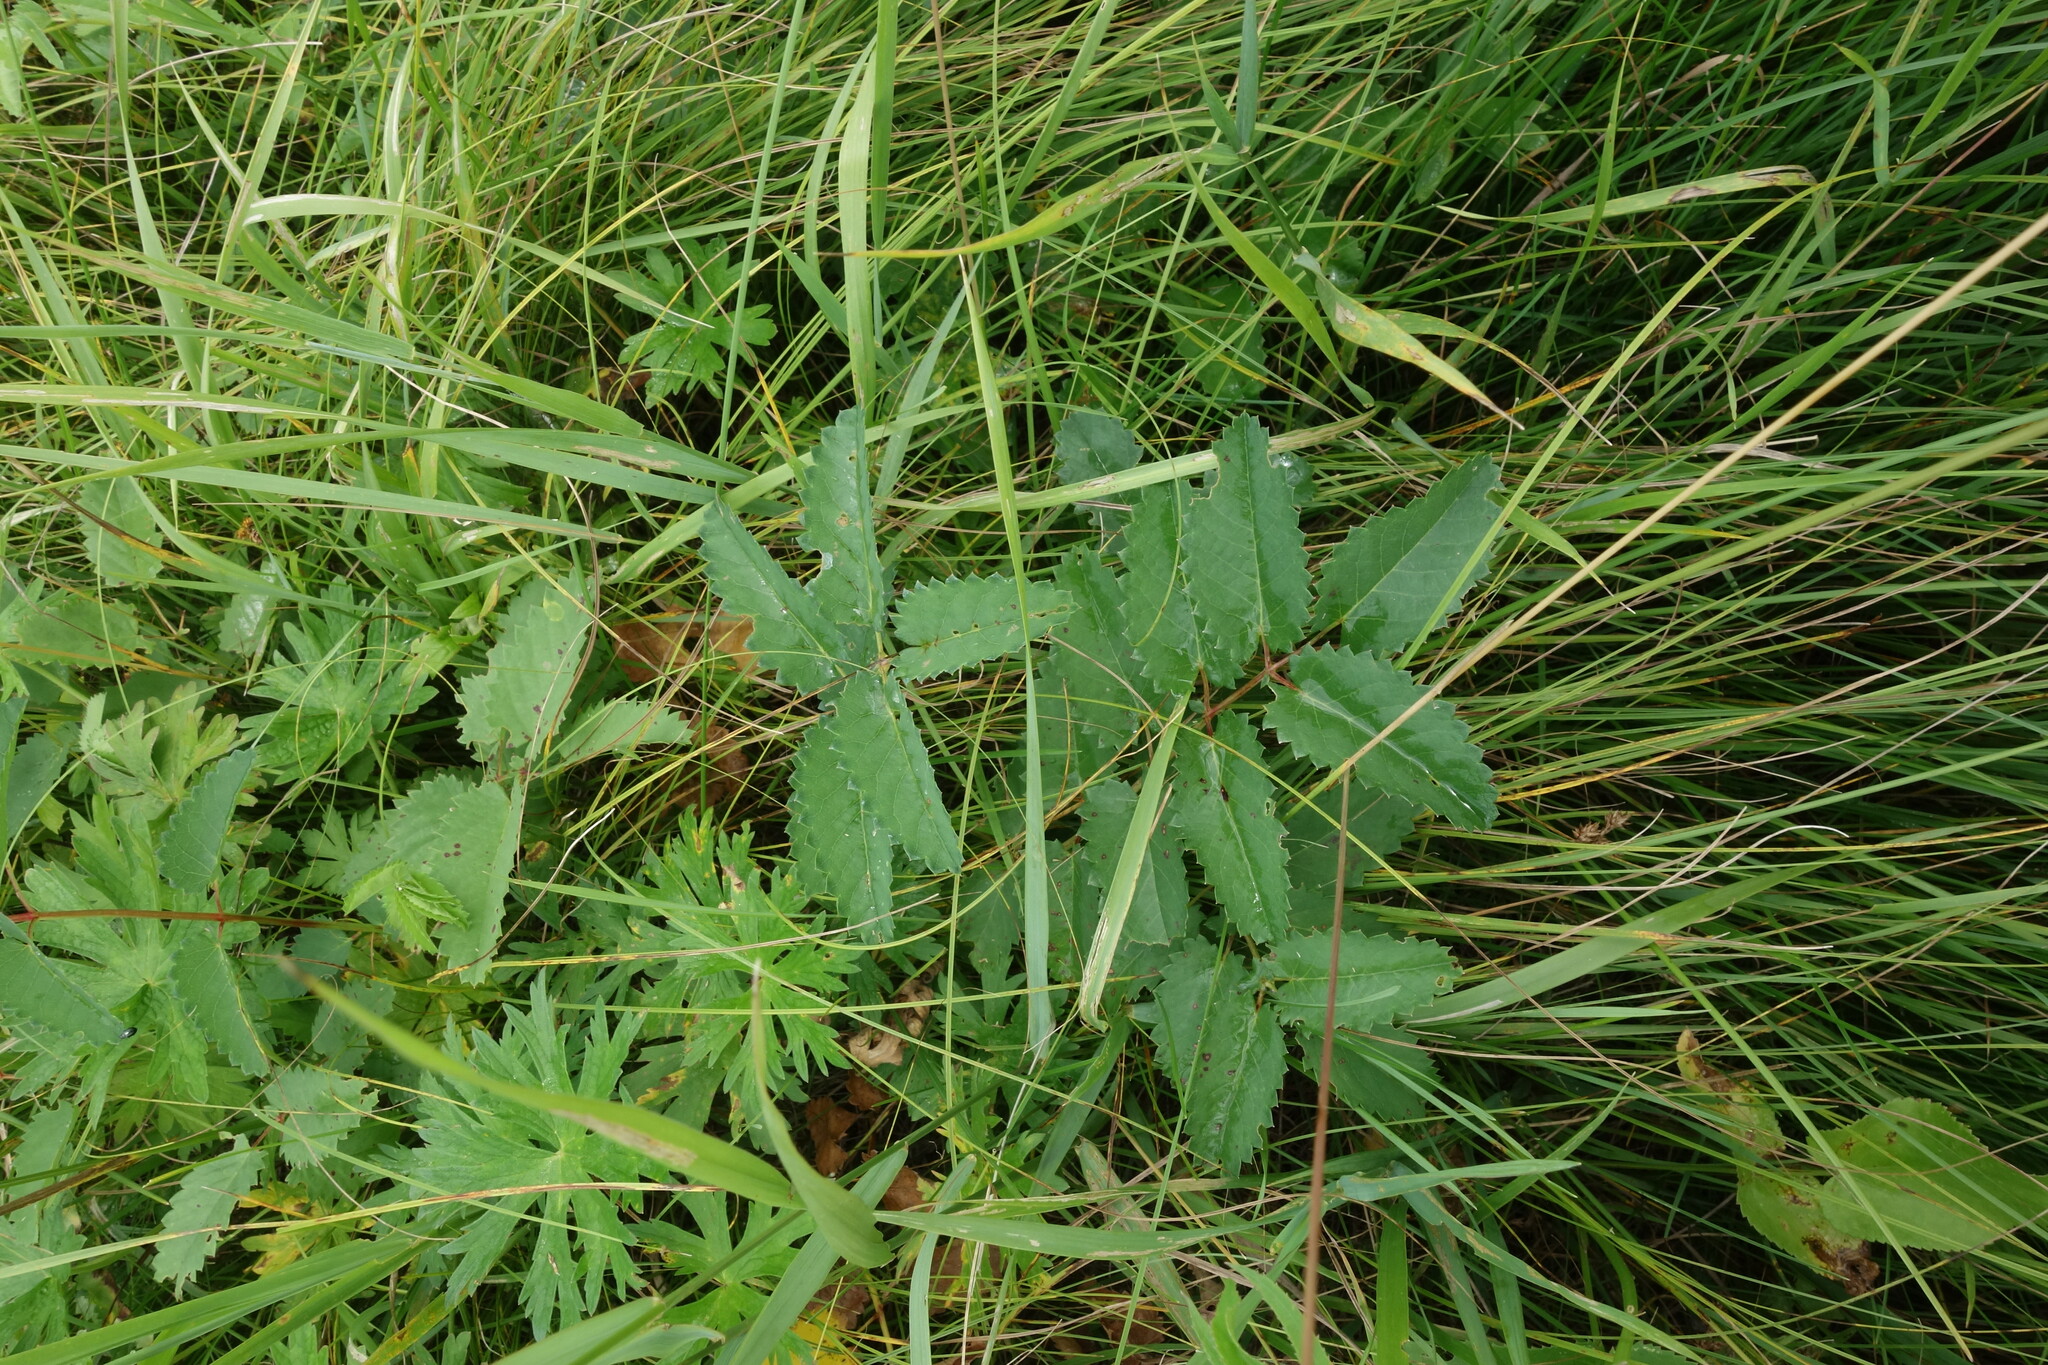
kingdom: Plantae
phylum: Tracheophyta
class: Magnoliopsida
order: Rosales
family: Rosaceae
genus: Sanguisorba
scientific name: Sanguisorba officinalis
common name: Great burnet
